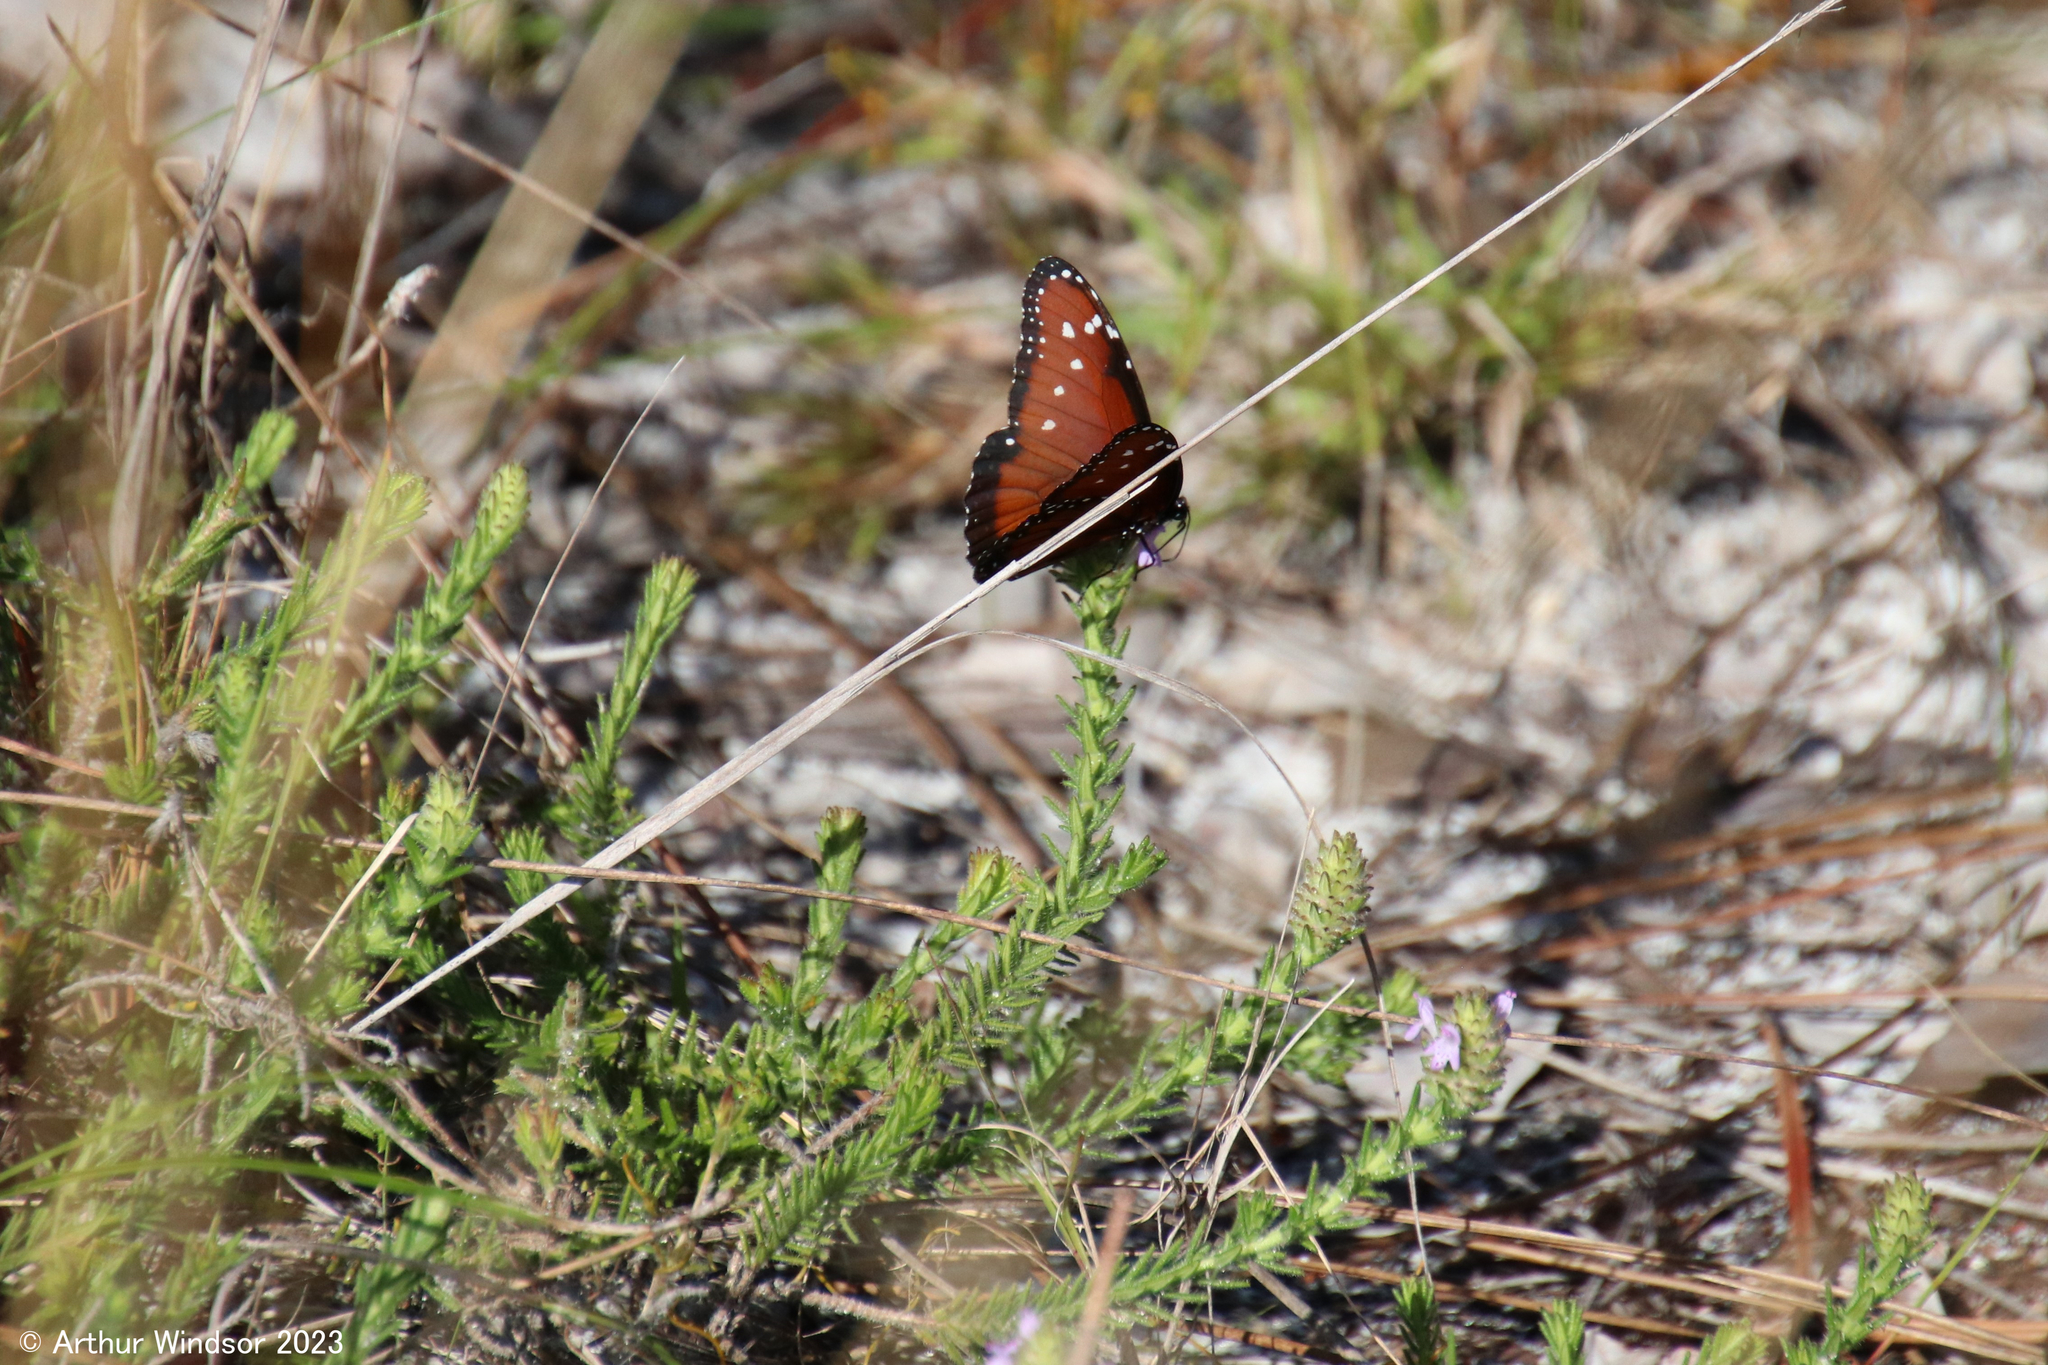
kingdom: Animalia
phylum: Arthropoda
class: Insecta
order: Lepidoptera
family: Nymphalidae
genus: Danaus
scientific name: Danaus gilippus
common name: Queen
